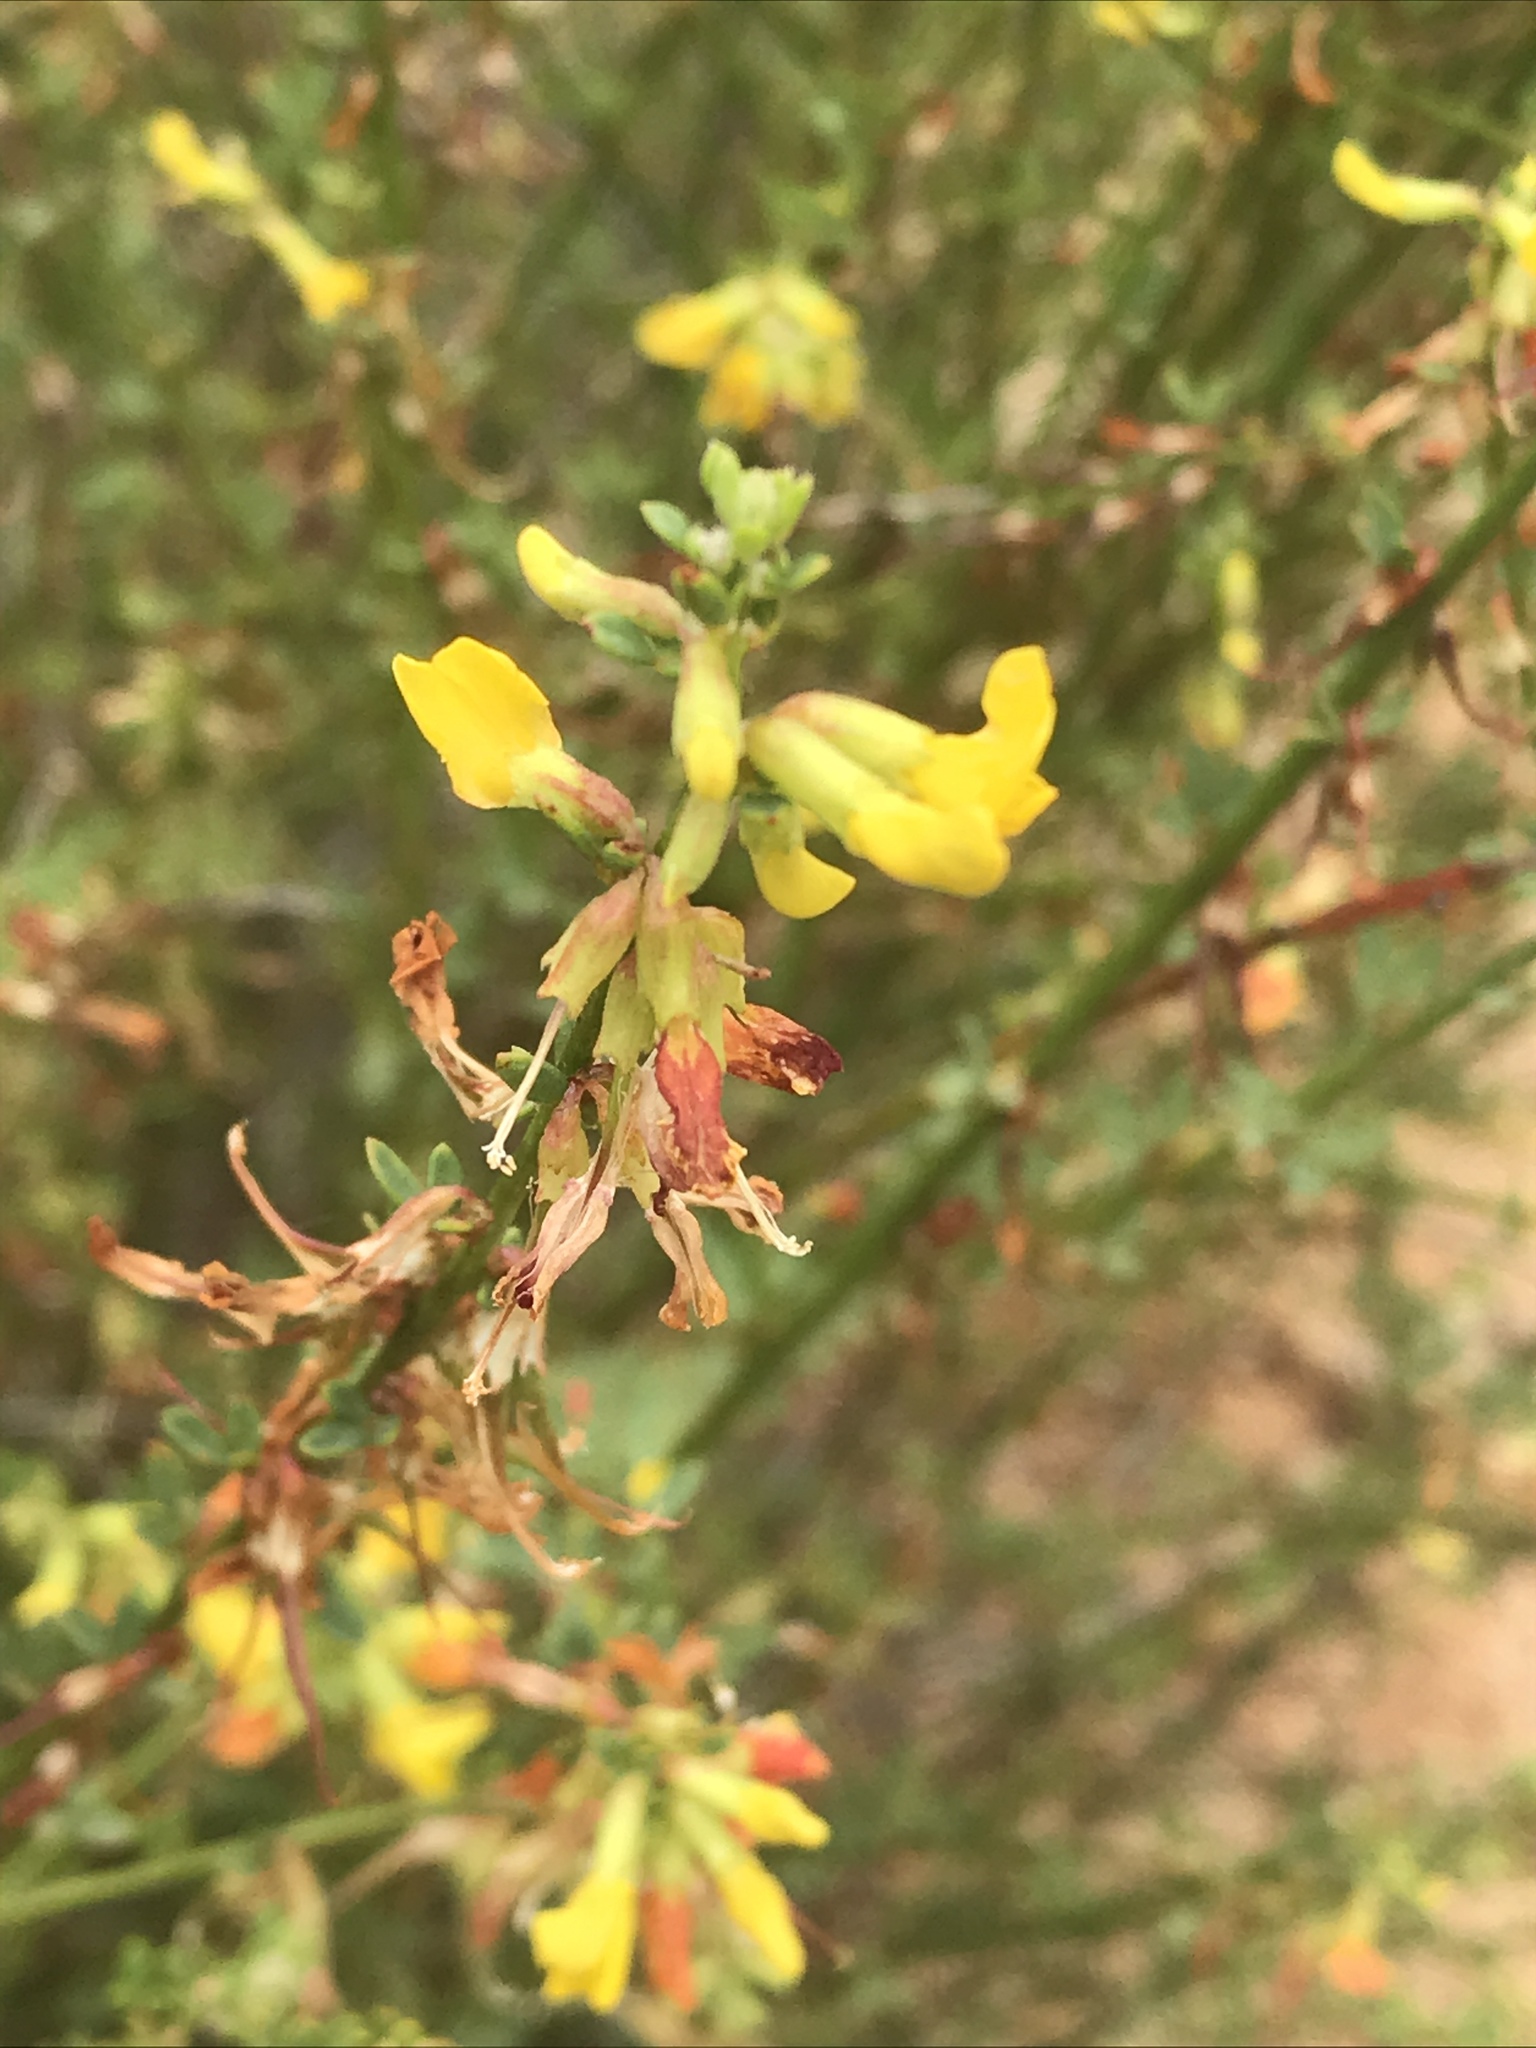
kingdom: Plantae
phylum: Tracheophyta
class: Magnoliopsida
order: Fabales
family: Fabaceae
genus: Acmispon
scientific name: Acmispon glaber
